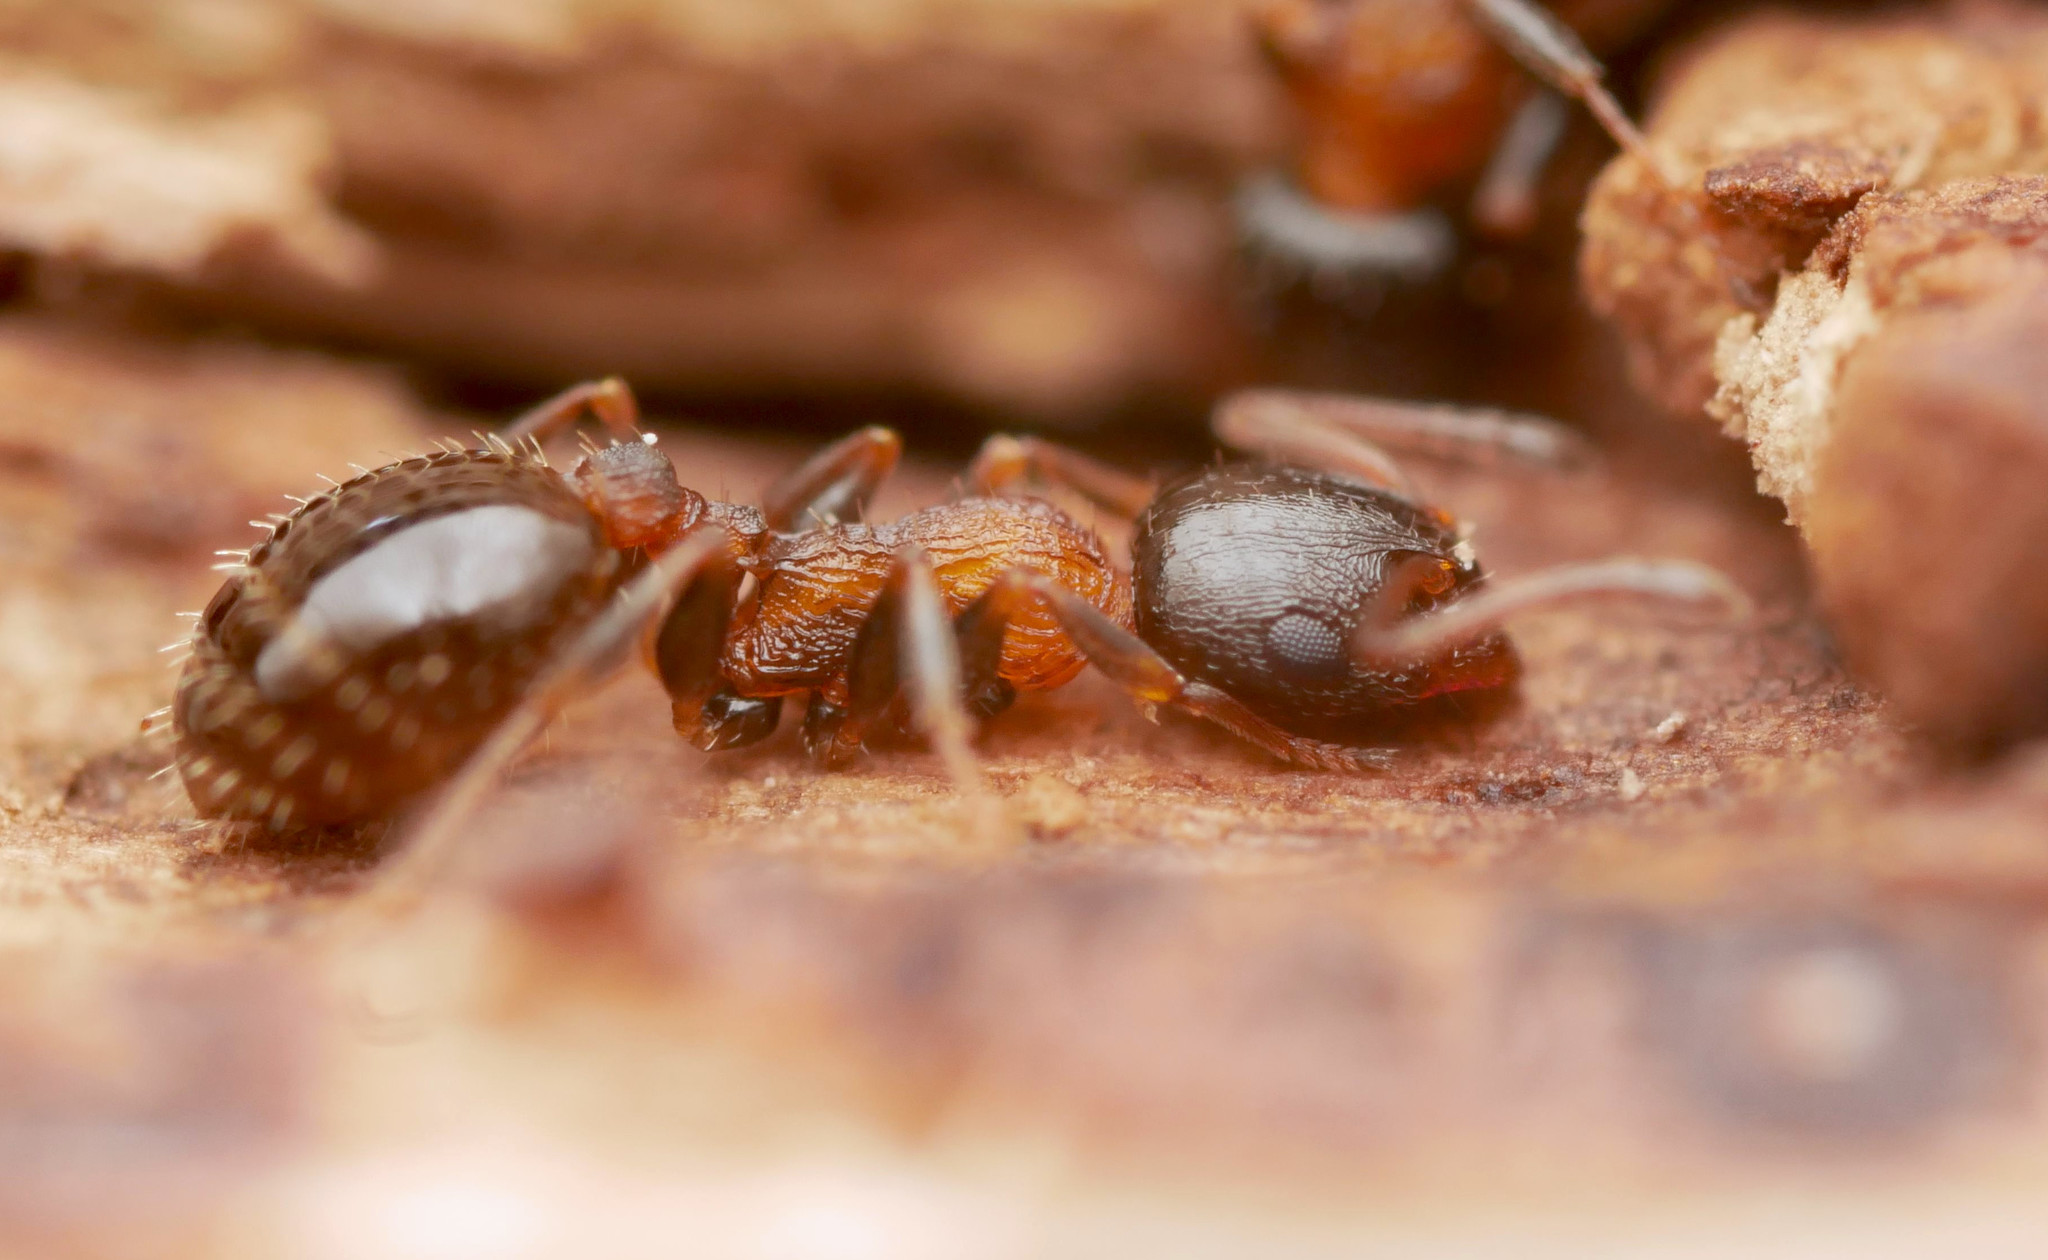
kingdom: Animalia
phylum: Arthropoda
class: Insecta
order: Hymenoptera
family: Formicidae
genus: Temnothorax
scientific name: Temnothorax continentalis
